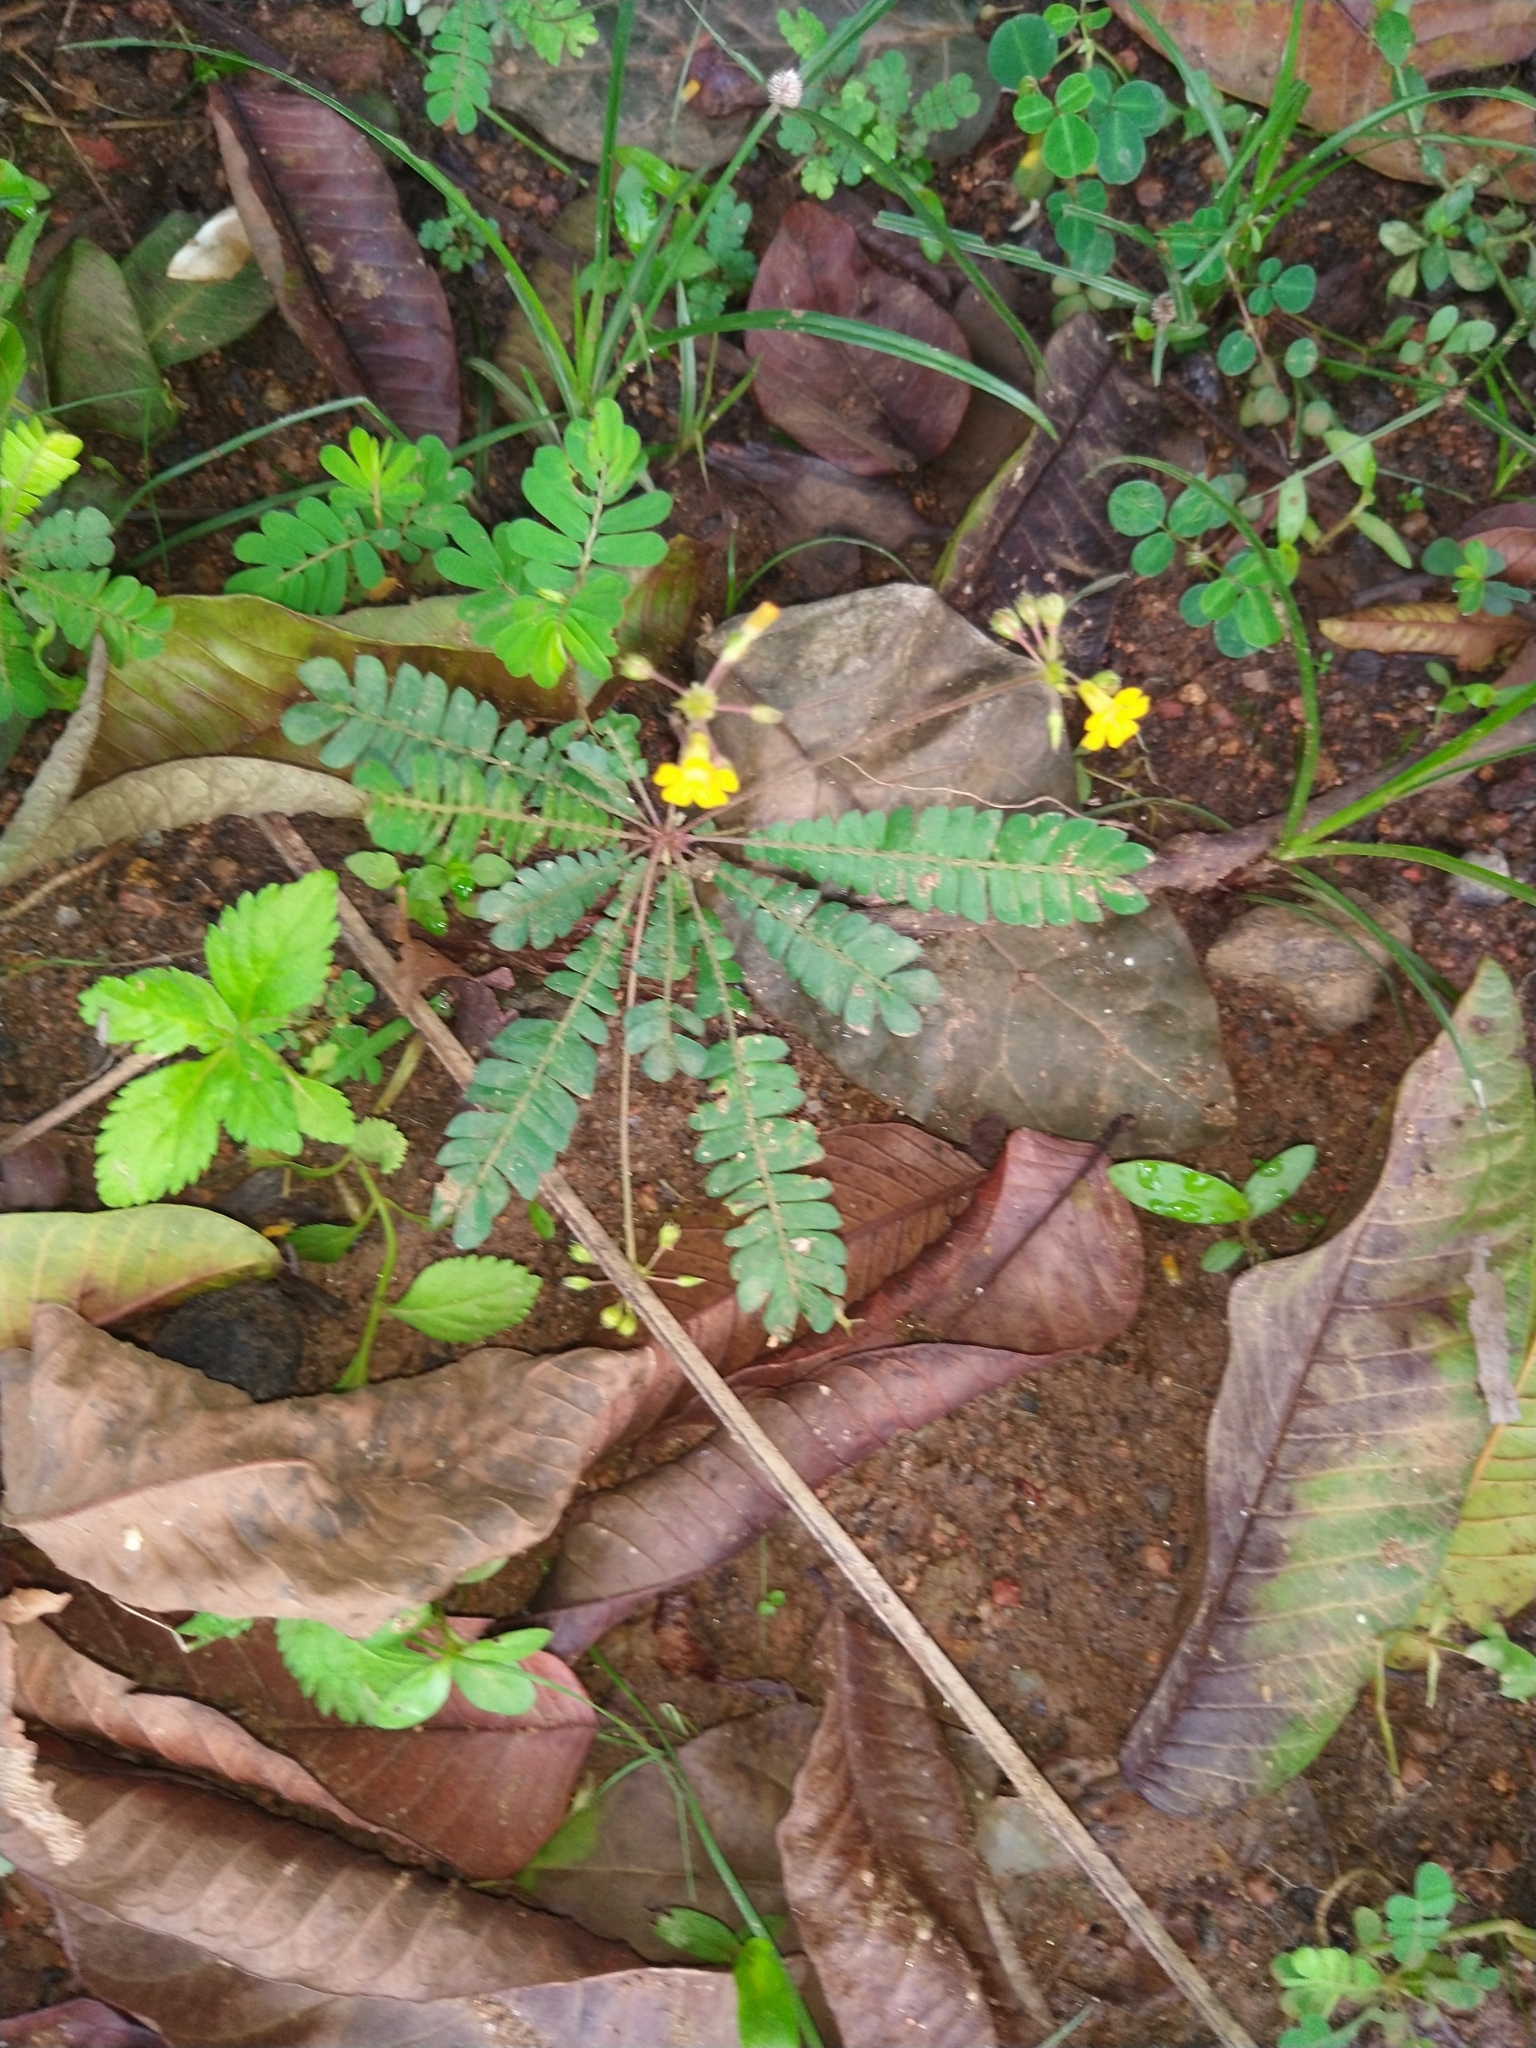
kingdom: Plantae
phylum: Tracheophyta
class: Magnoliopsida
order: Oxalidales
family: Oxalidaceae
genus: Biophytum
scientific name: Biophytum sensitivum
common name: Lifeplant
